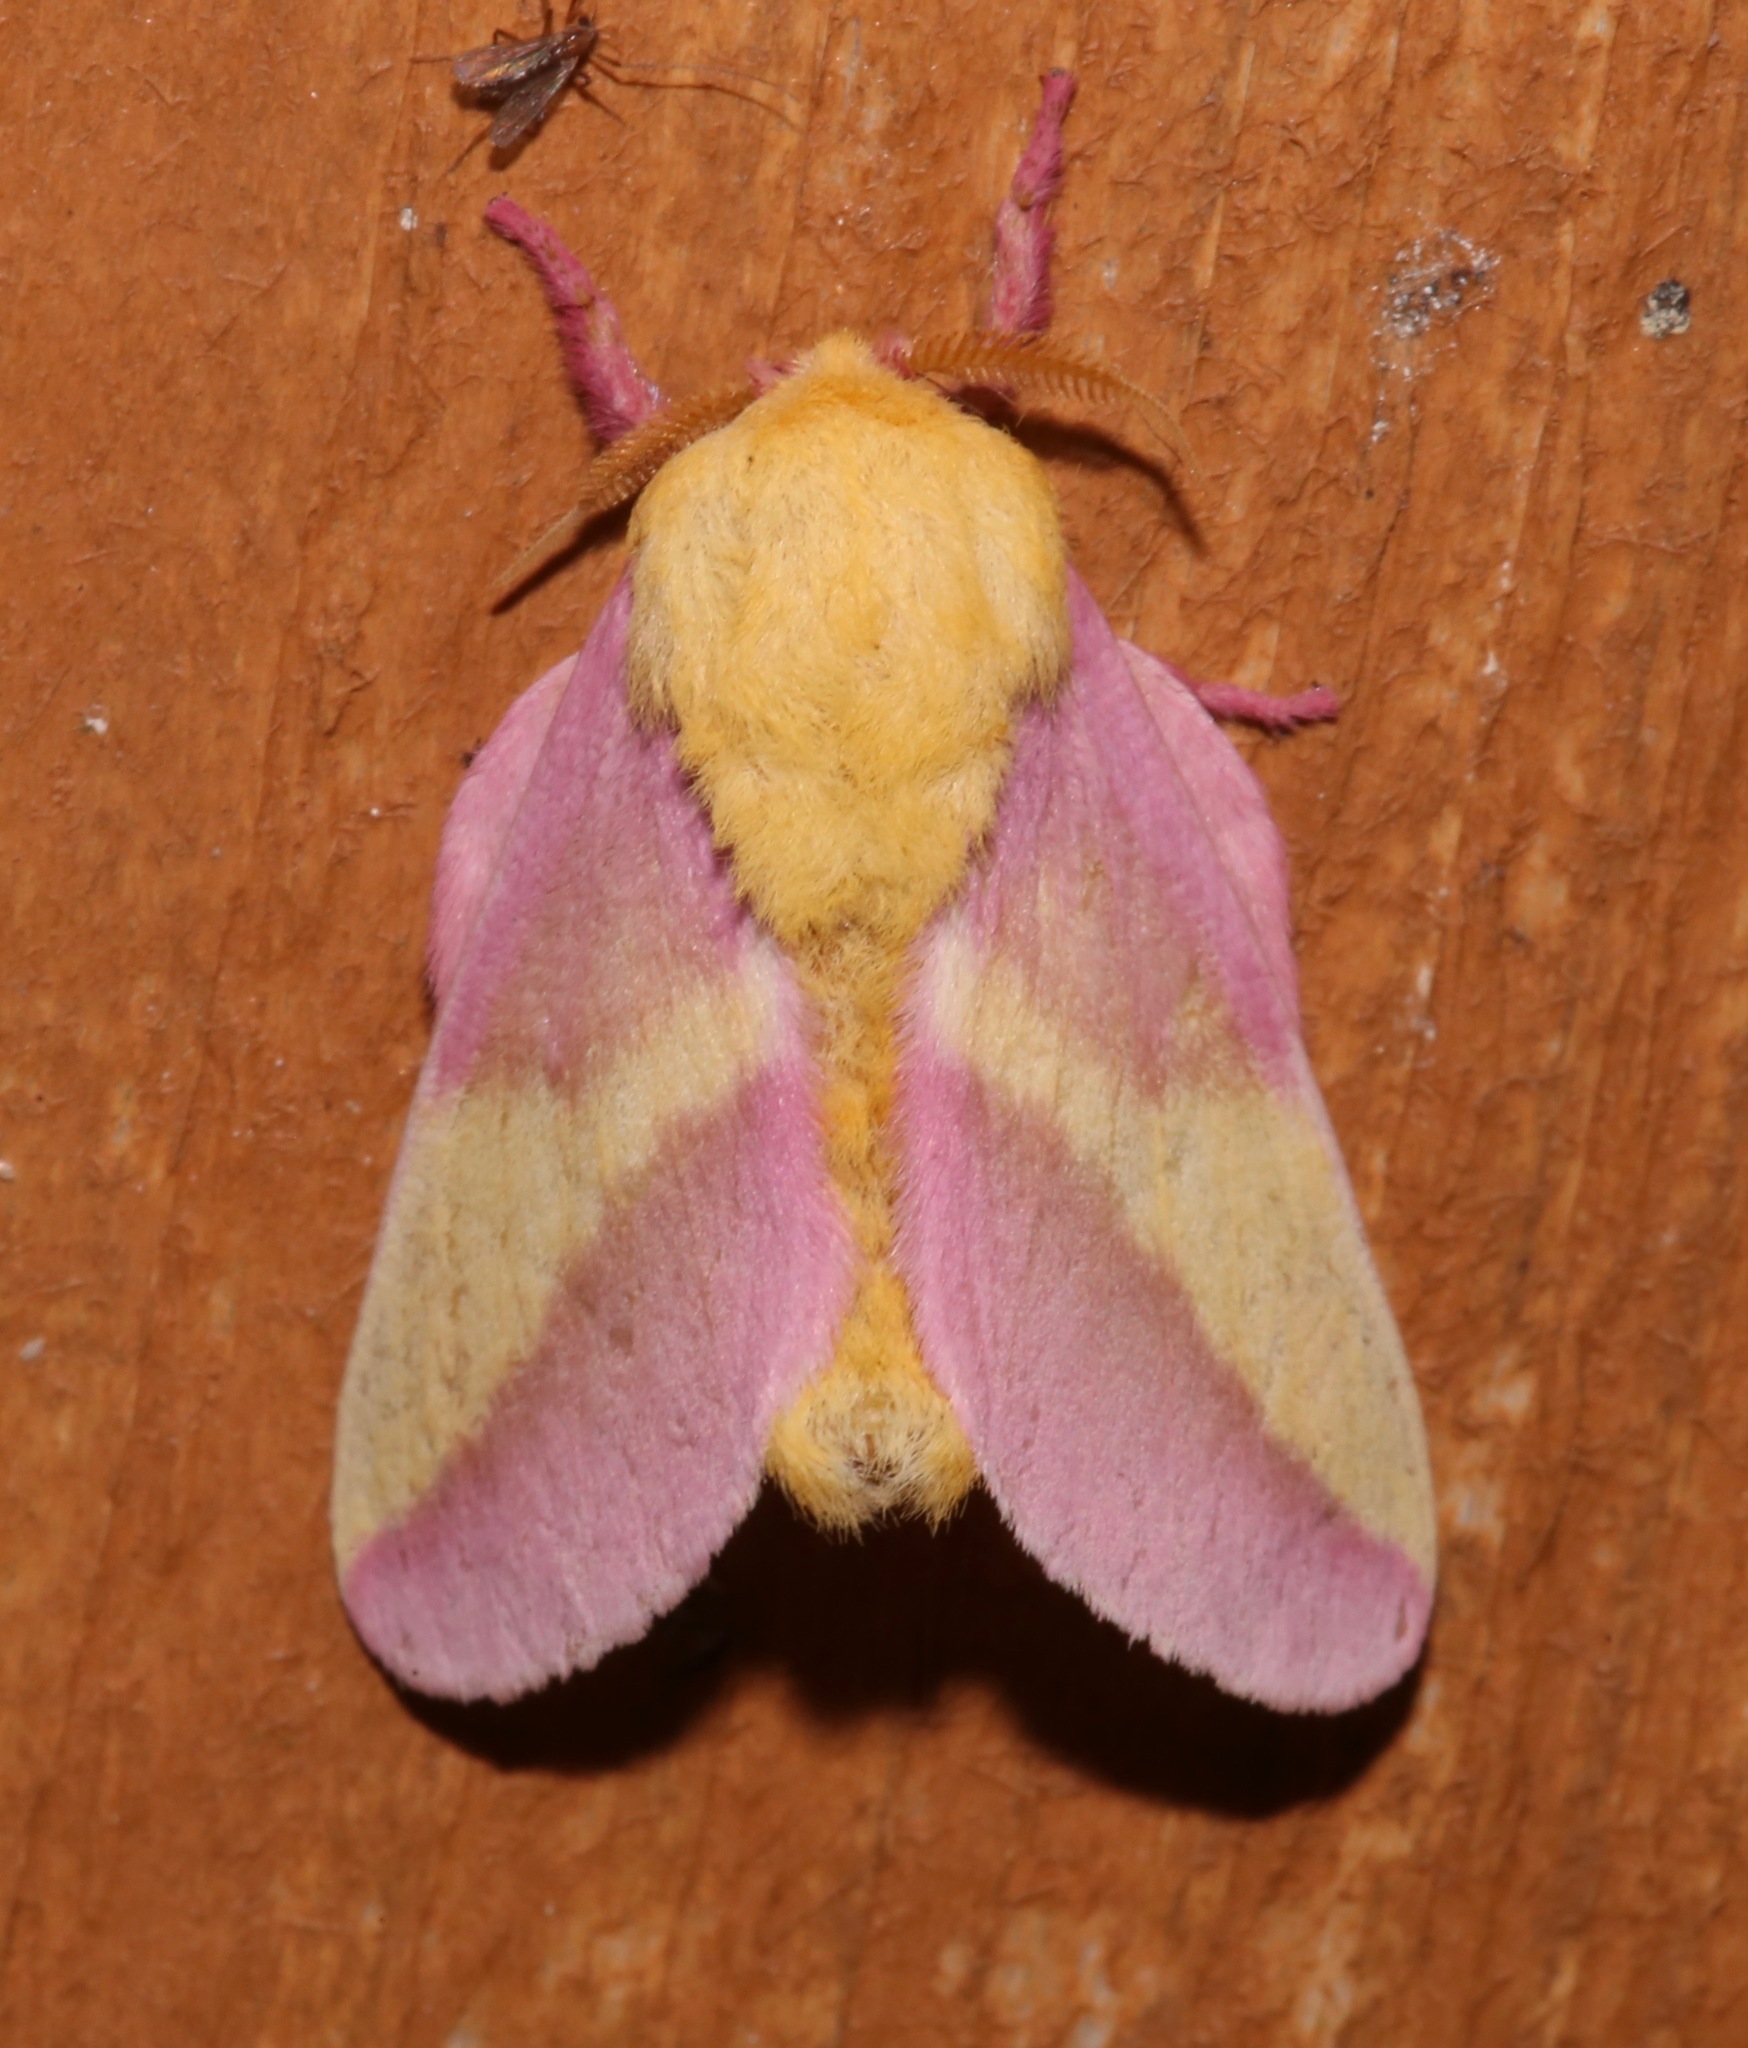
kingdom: Animalia
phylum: Arthropoda
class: Insecta
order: Lepidoptera
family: Saturniidae
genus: Dryocampa
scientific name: Dryocampa rubicunda
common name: Rosy maple moth
